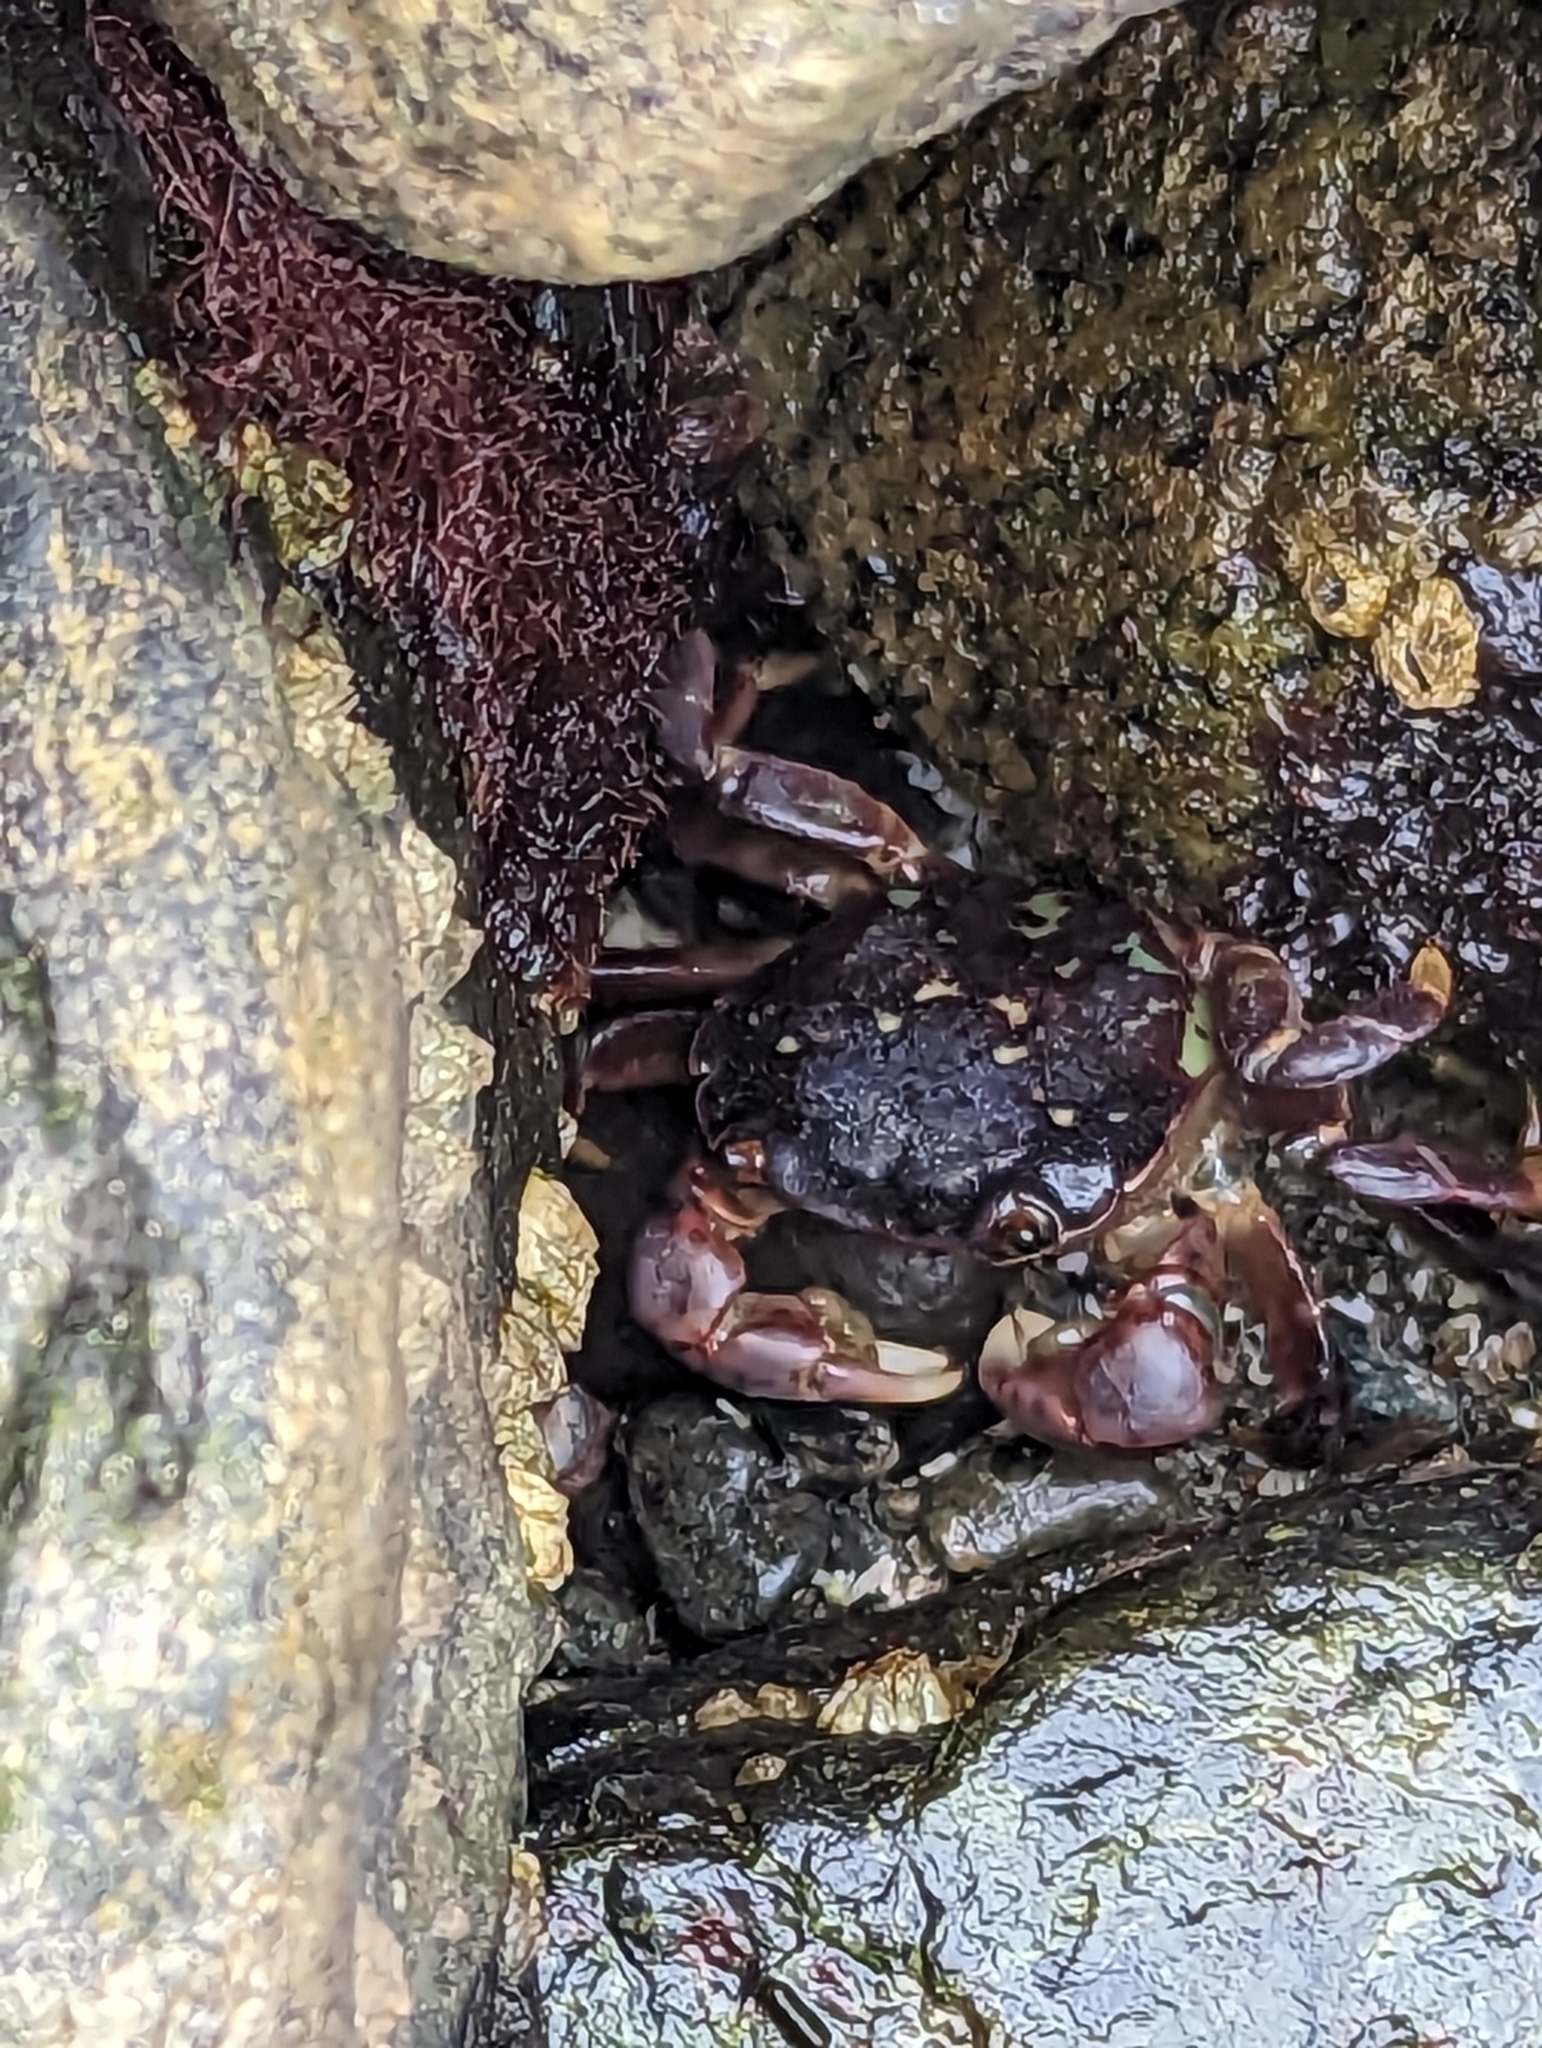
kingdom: Animalia
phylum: Arthropoda
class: Malacostraca
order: Decapoda
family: Varunidae
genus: Hemigrapsus
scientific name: Hemigrapsus nudus
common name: Purple shore crab
